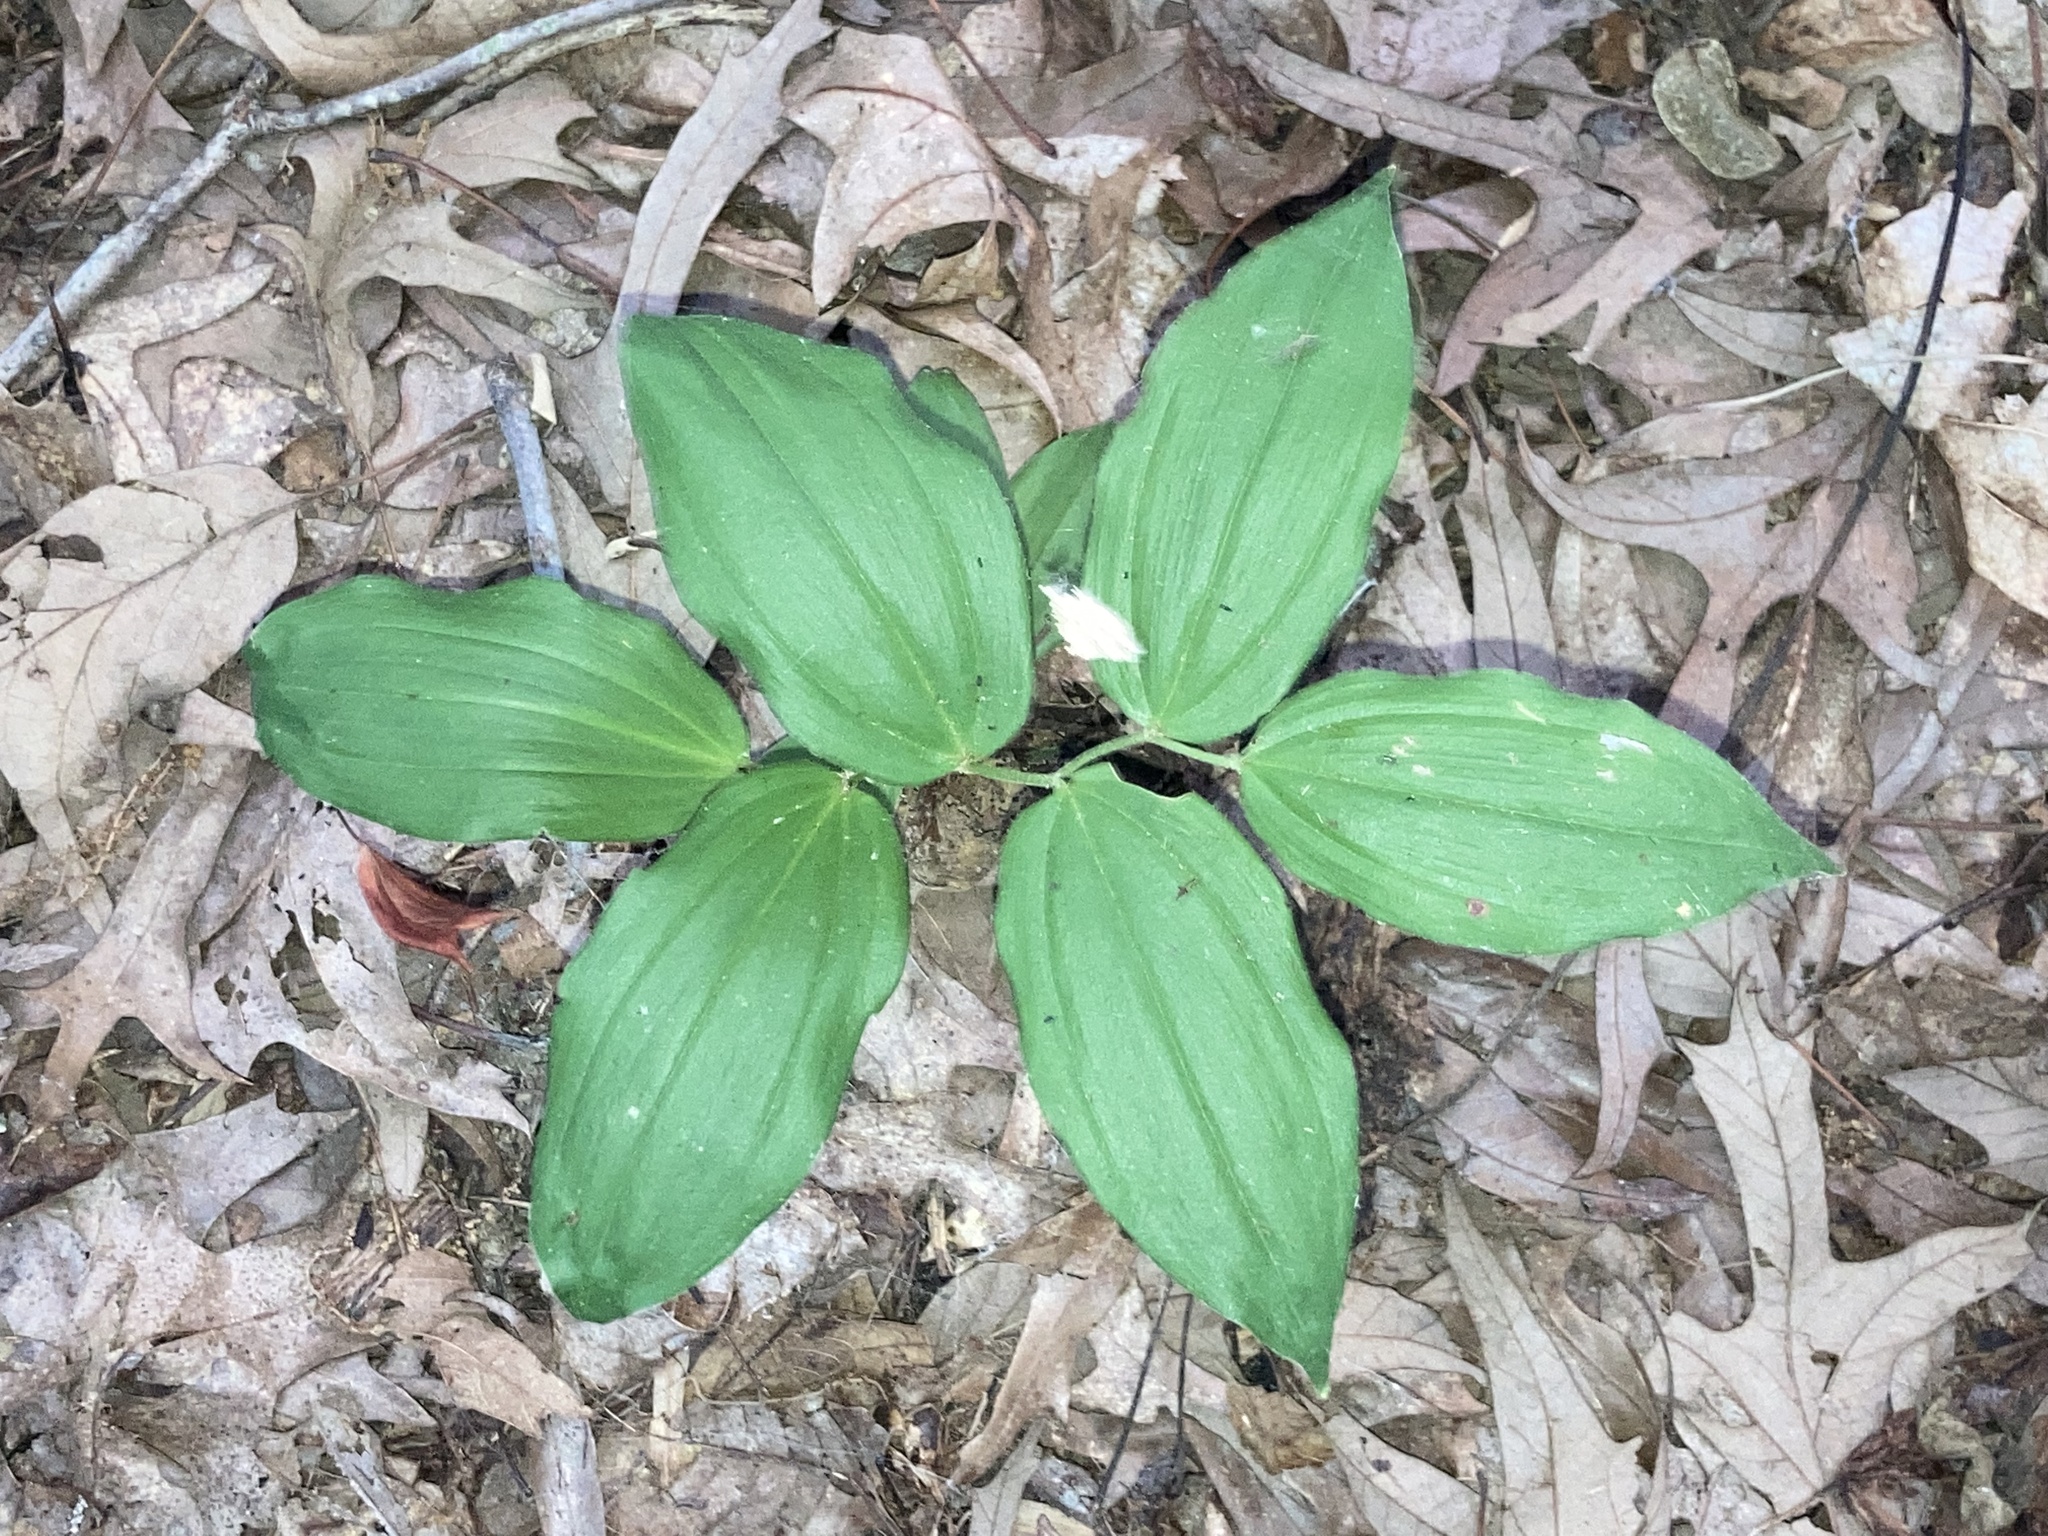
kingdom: Plantae
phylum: Tracheophyta
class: Liliopsida
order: Asparagales
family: Asparagaceae
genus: Maianthemum
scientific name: Maianthemum racemosum
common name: False spikenard
